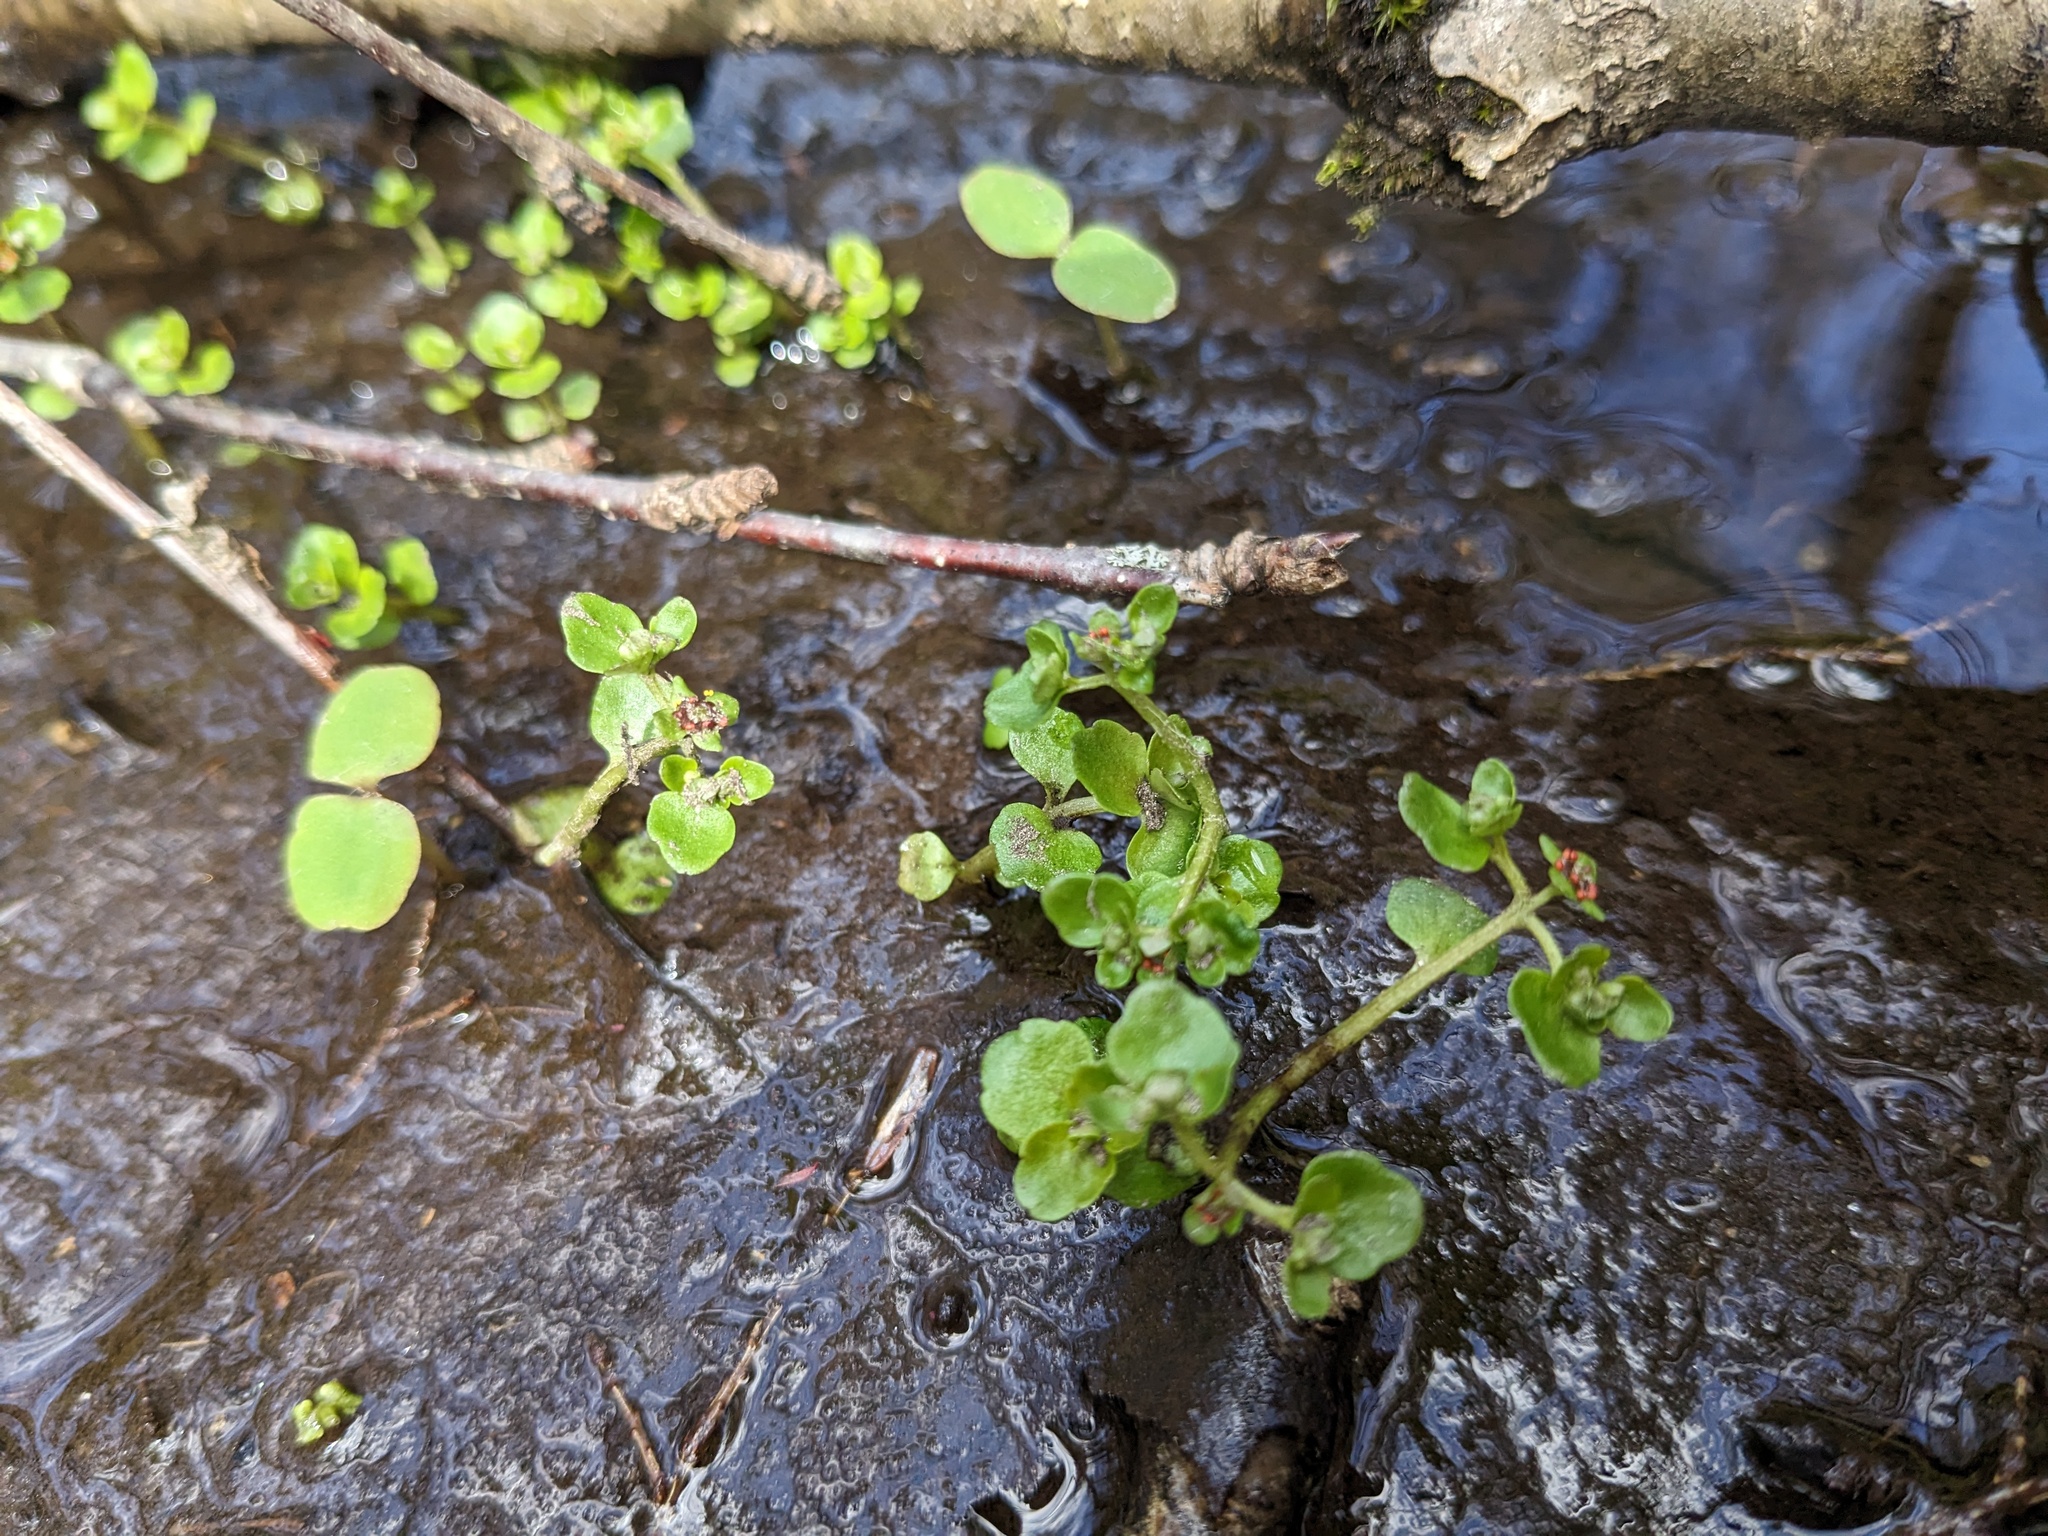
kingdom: Plantae
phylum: Tracheophyta
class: Magnoliopsida
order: Saxifragales
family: Saxifragaceae
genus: Chrysosplenium
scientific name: Chrysosplenium americanum
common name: American golden-saxifrage
